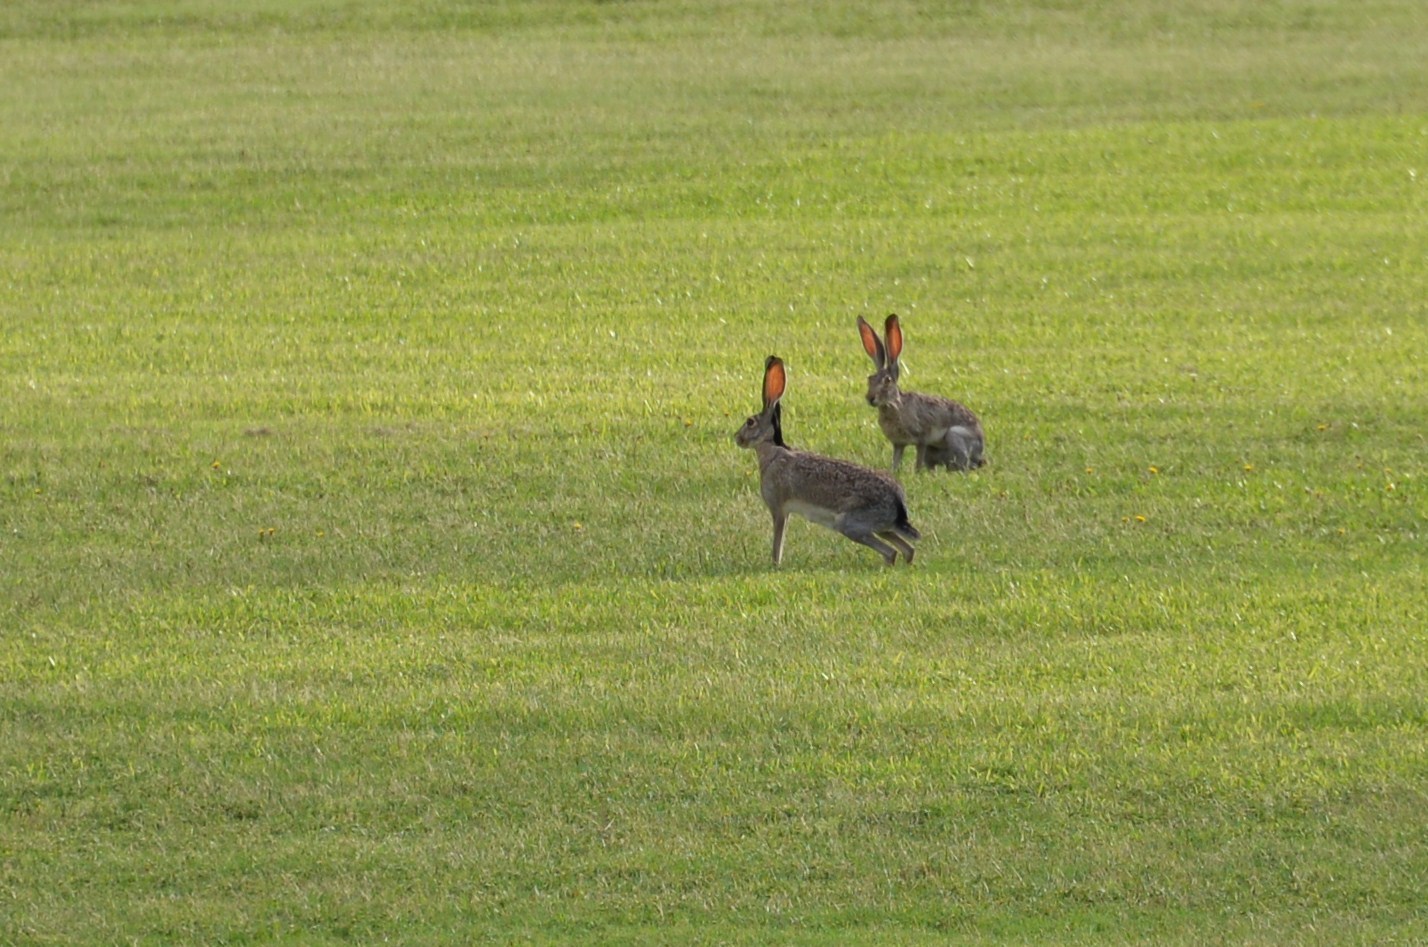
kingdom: Animalia
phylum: Chordata
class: Mammalia
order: Lagomorpha
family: Leporidae
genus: Lepus
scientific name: Lepus californicus
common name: Black-tailed jackrabbit
